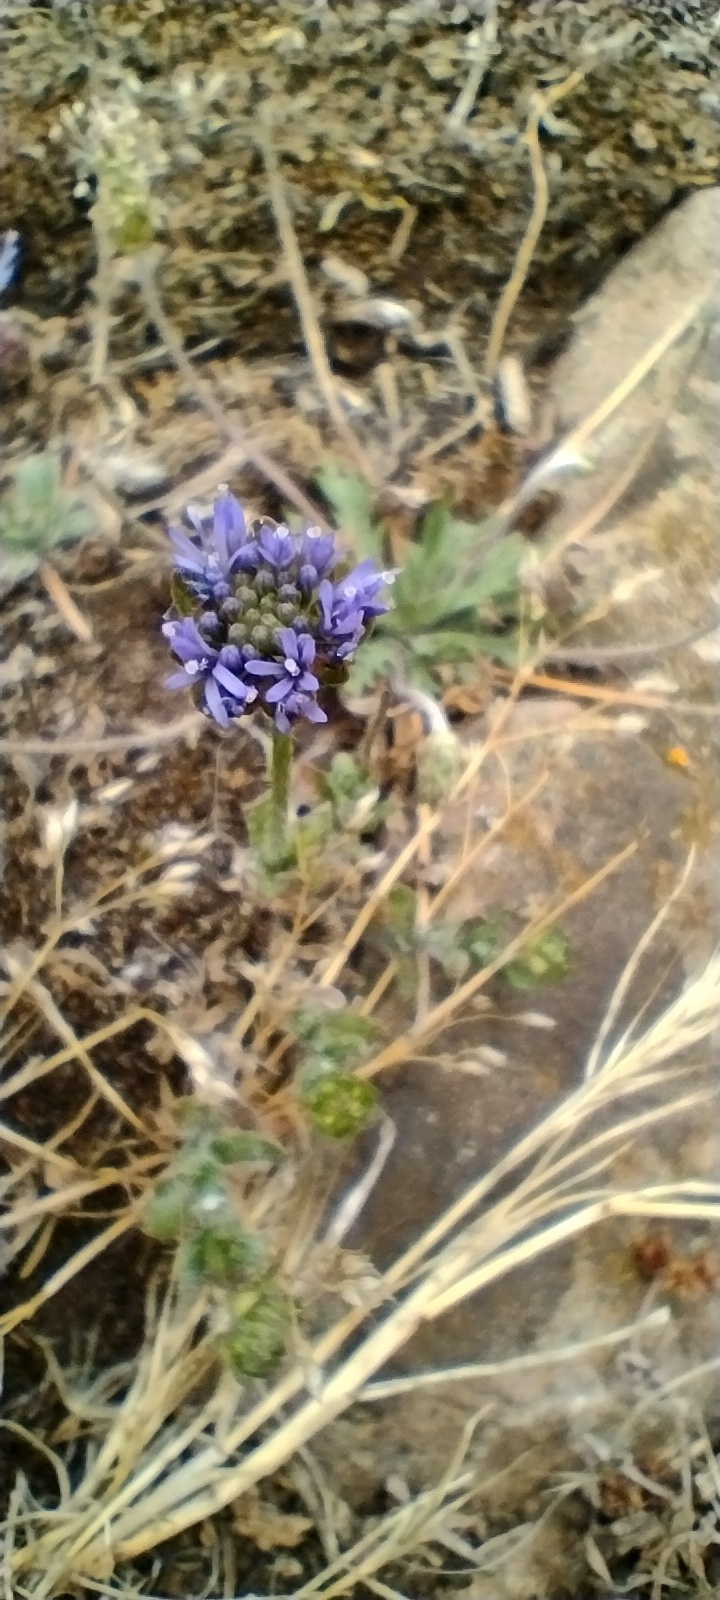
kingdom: Plantae
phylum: Tracheophyta
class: Magnoliopsida
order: Asterales
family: Campanulaceae
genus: Jasione
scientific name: Jasione montana
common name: Sheep's-bit
